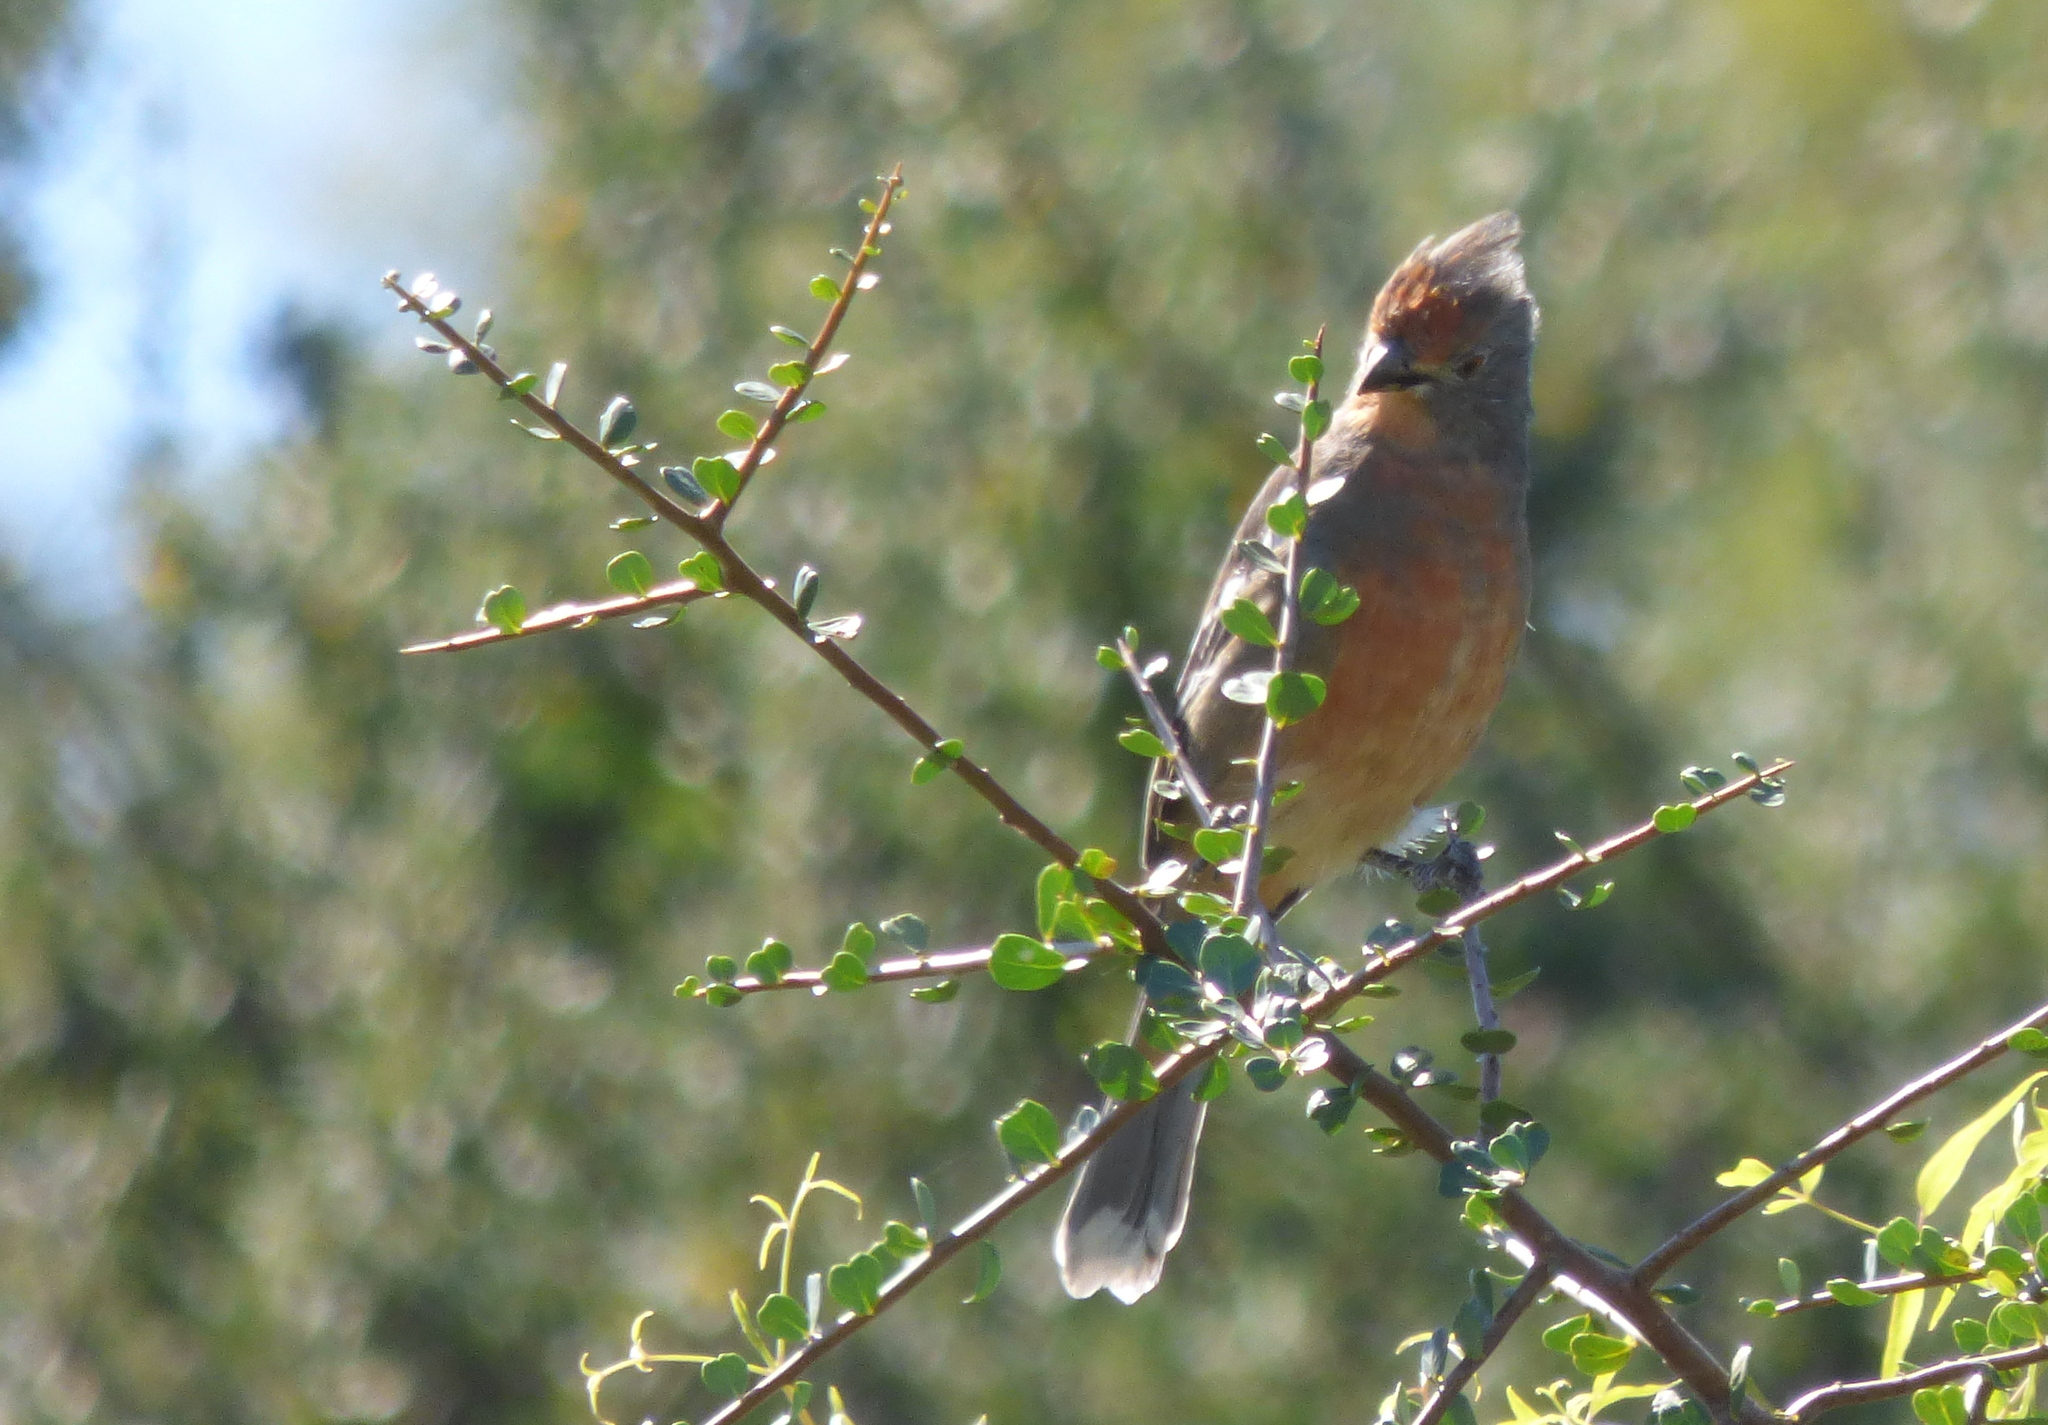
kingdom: Animalia
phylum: Chordata
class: Aves
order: Passeriformes
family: Cotingidae
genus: Phytotoma
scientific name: Phytotoma rutila
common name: White-tipped plantcutter
